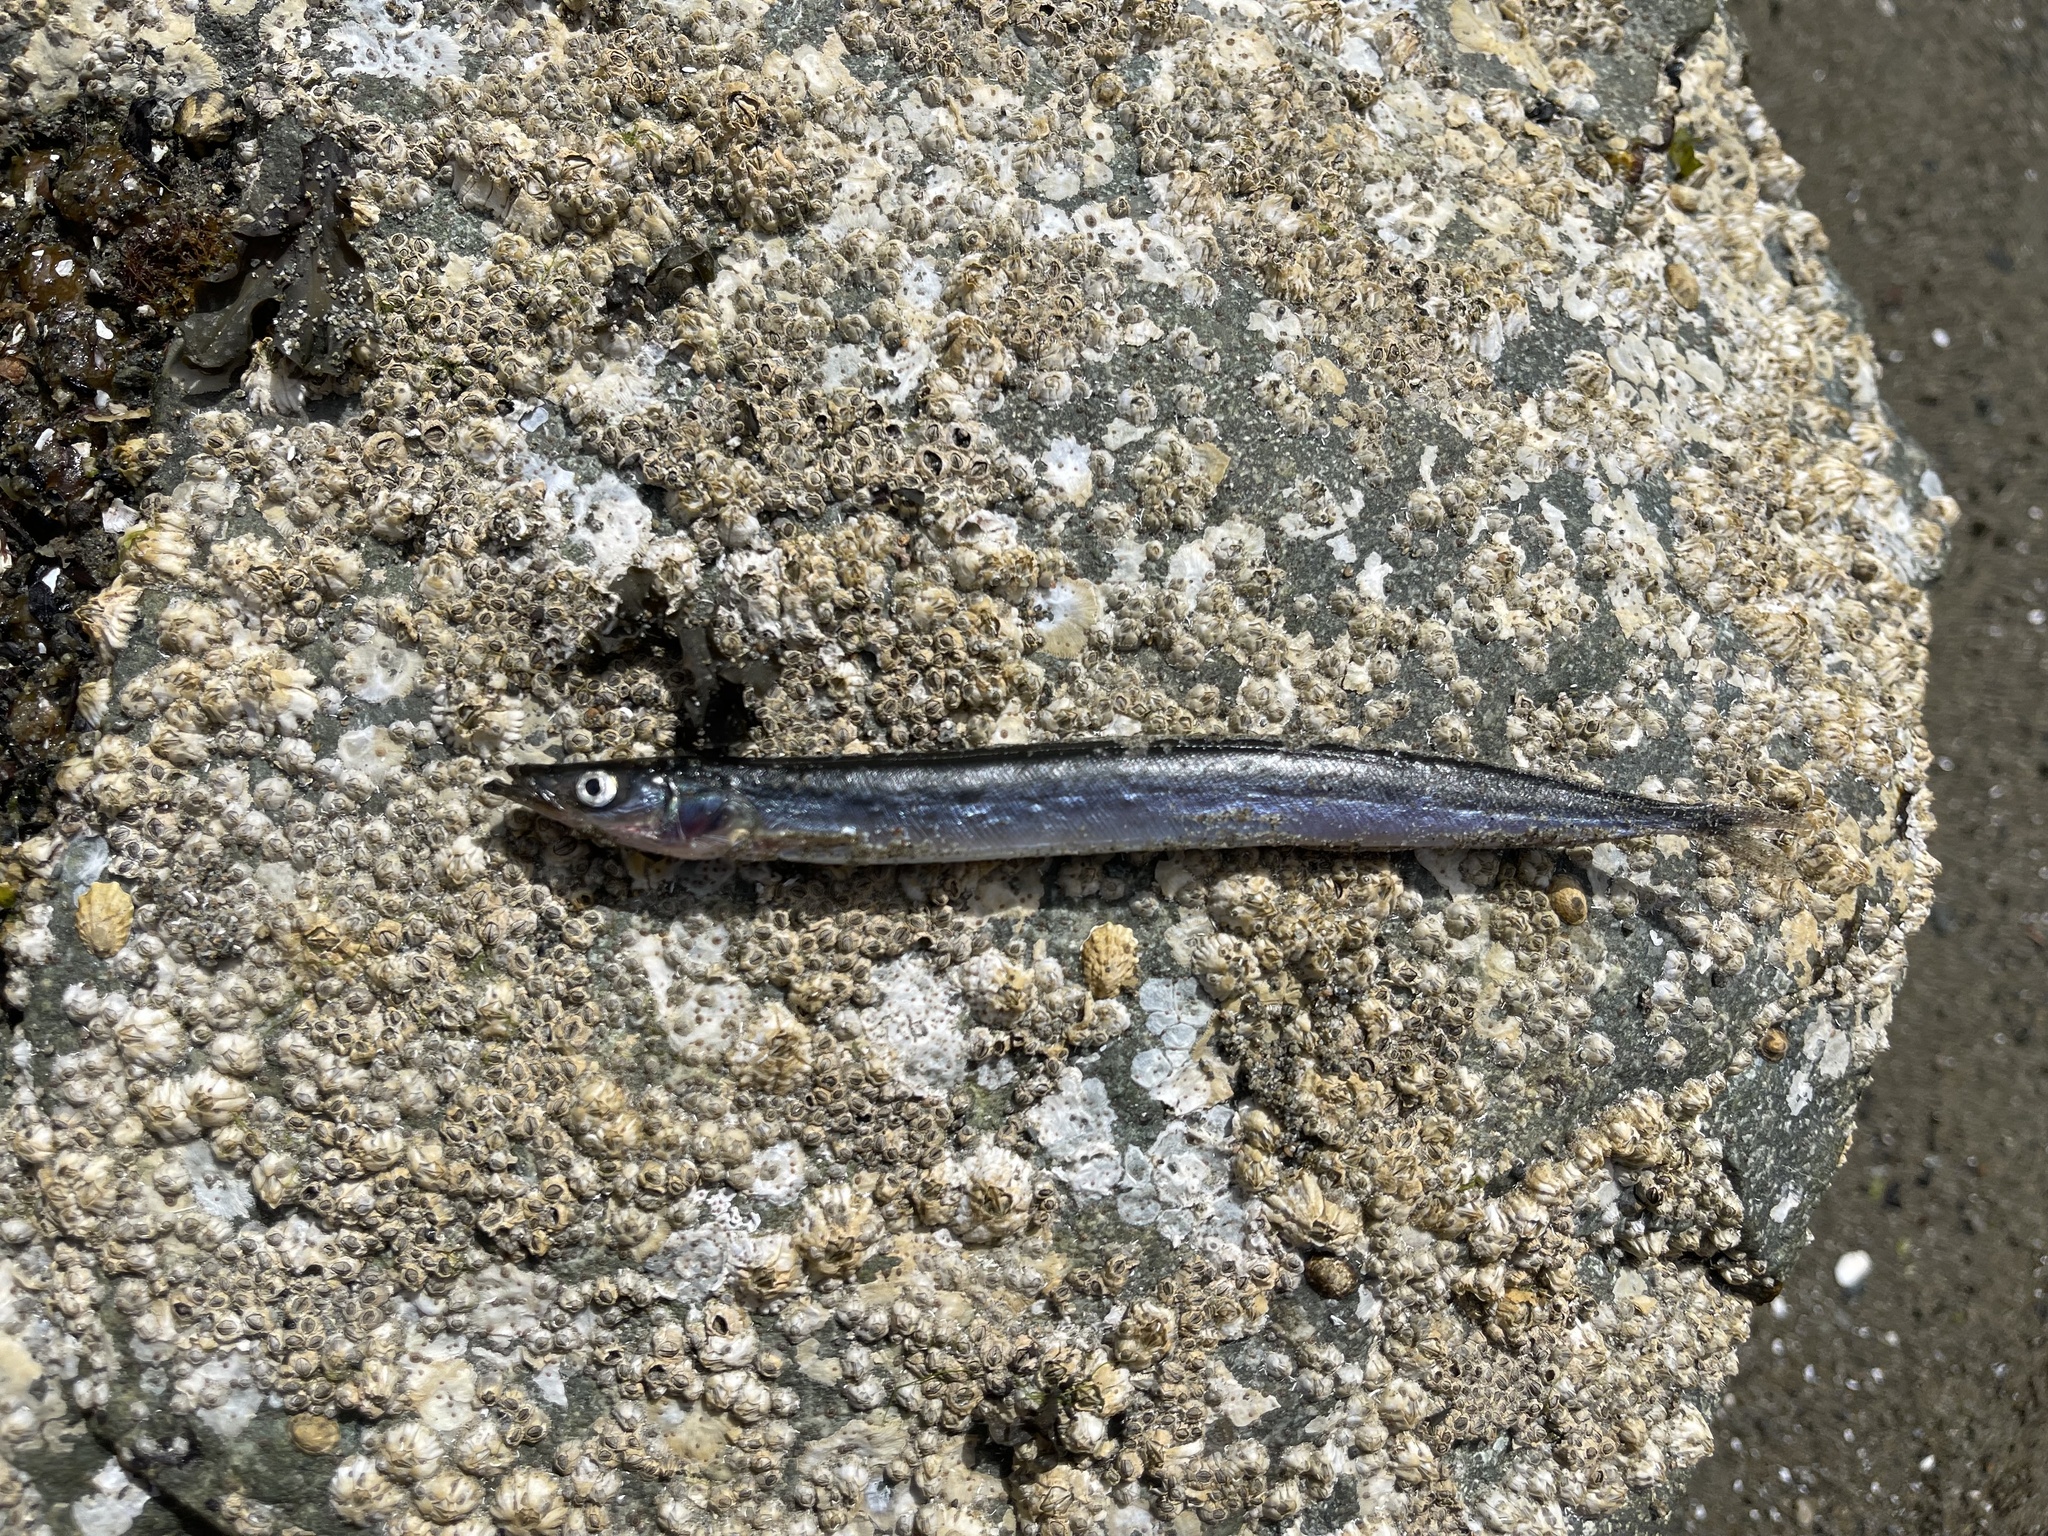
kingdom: Animalia
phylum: Chordata
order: Perciformes
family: Ammodytidae
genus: Ammodytes
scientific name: Ammodytes personatus
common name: Japanese sand lance
